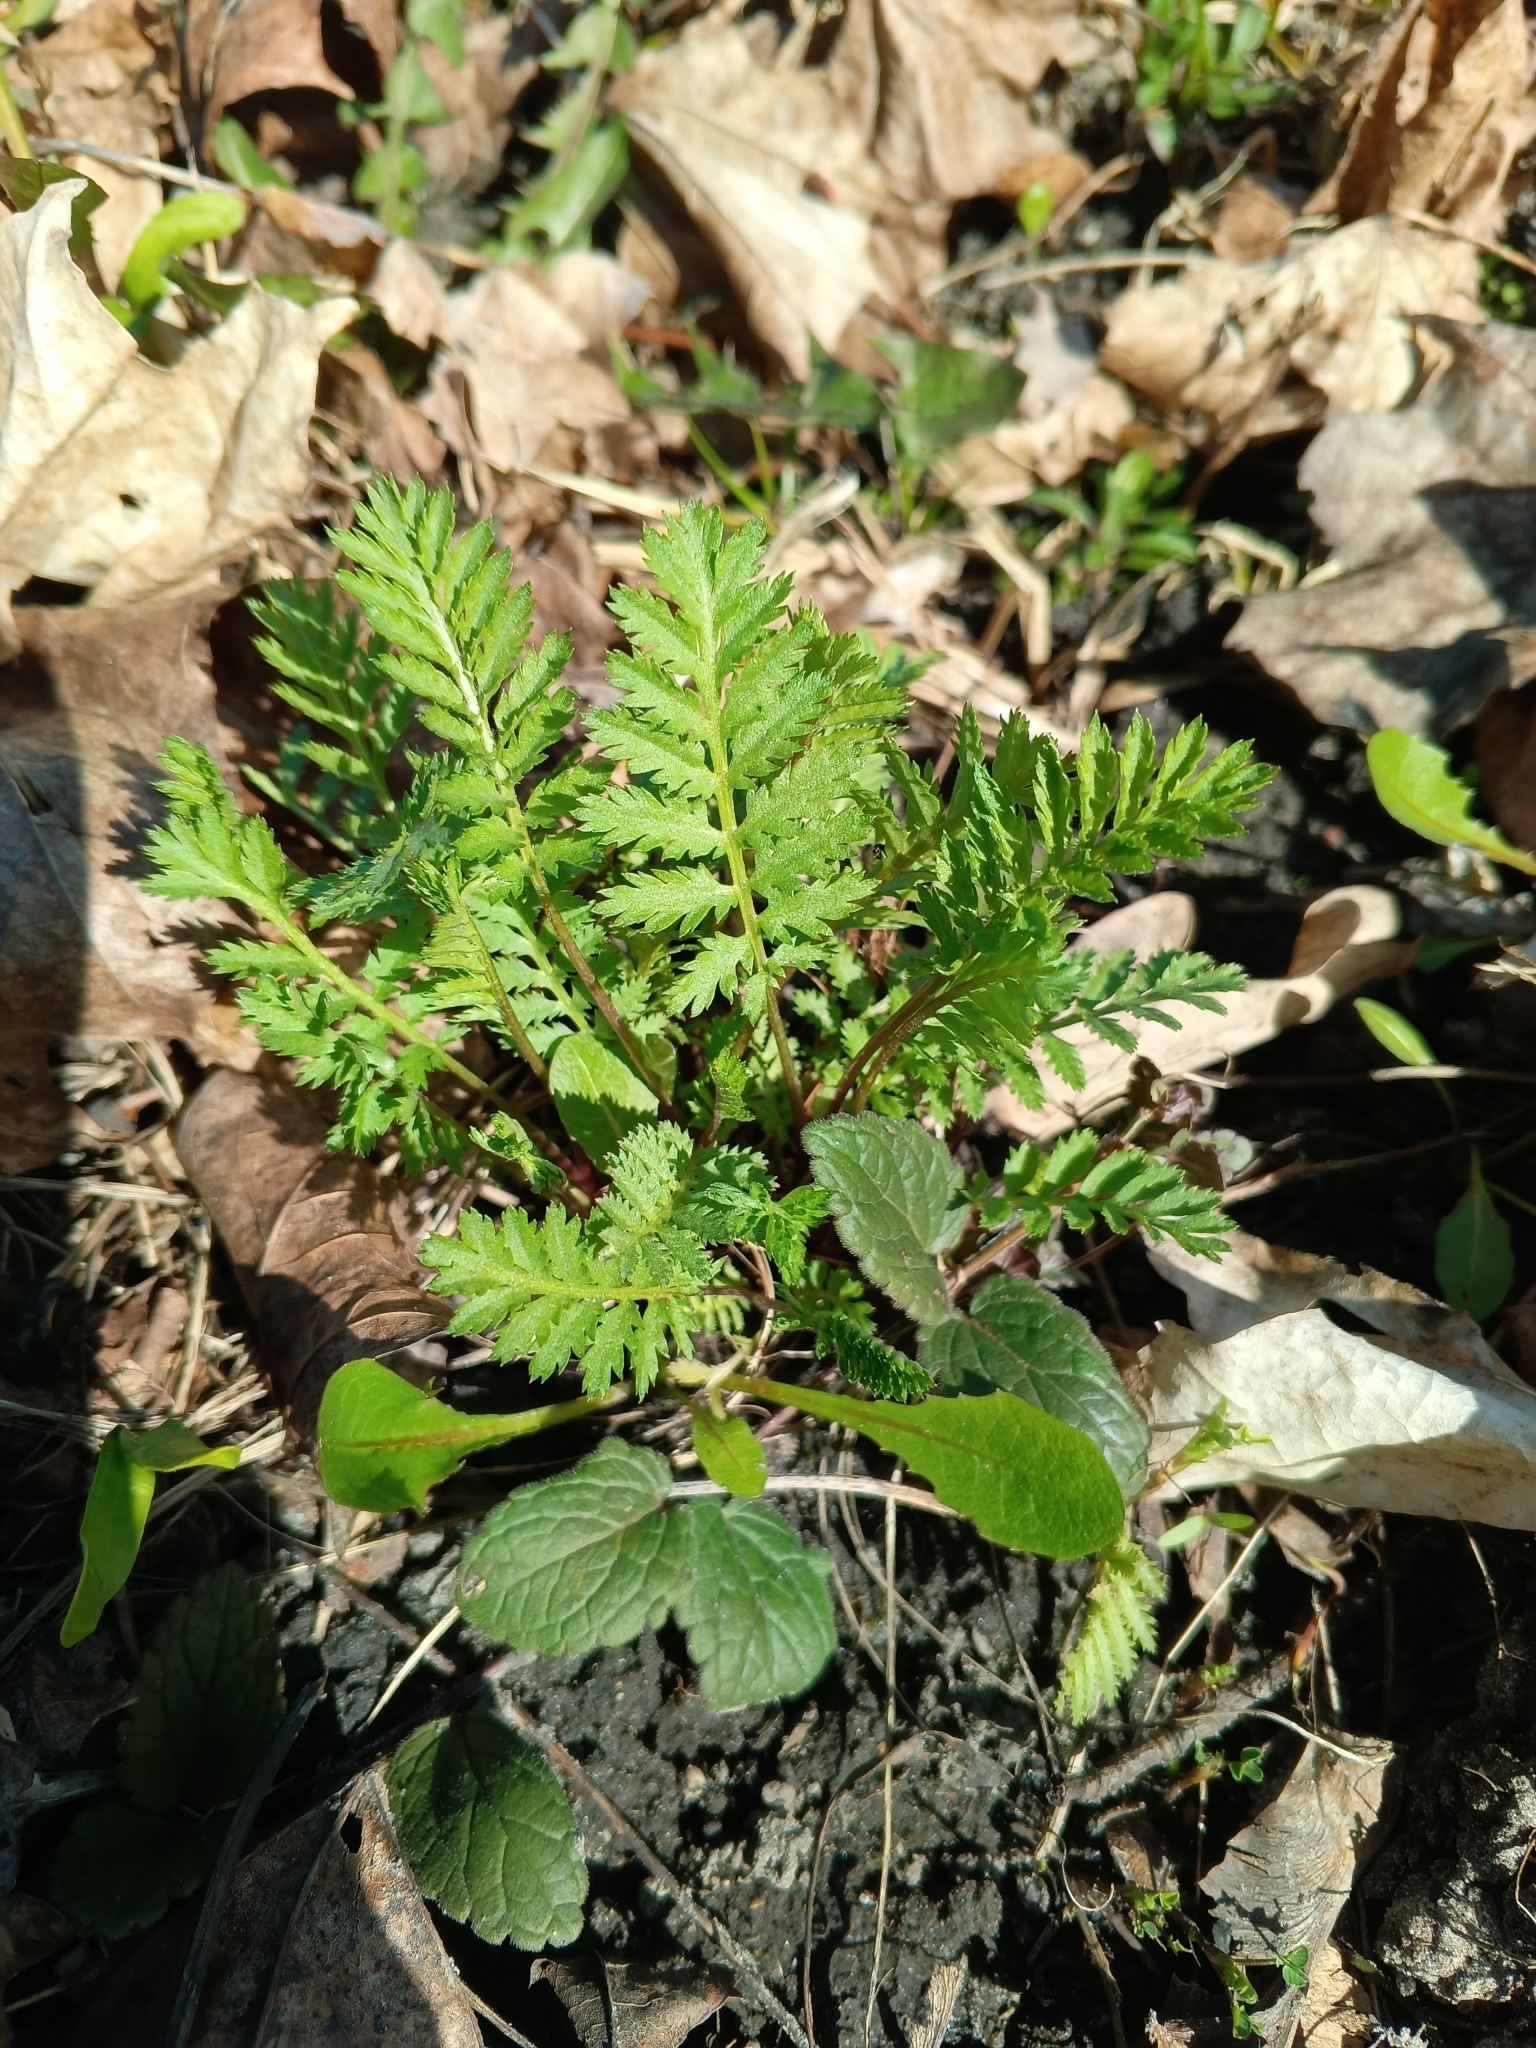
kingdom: Plantae
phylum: Tracheophyta
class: Magnoliopsida
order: Asterales
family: Asteraceae
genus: Tanacetum
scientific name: Tanacetum vulgare
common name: Common tansy
